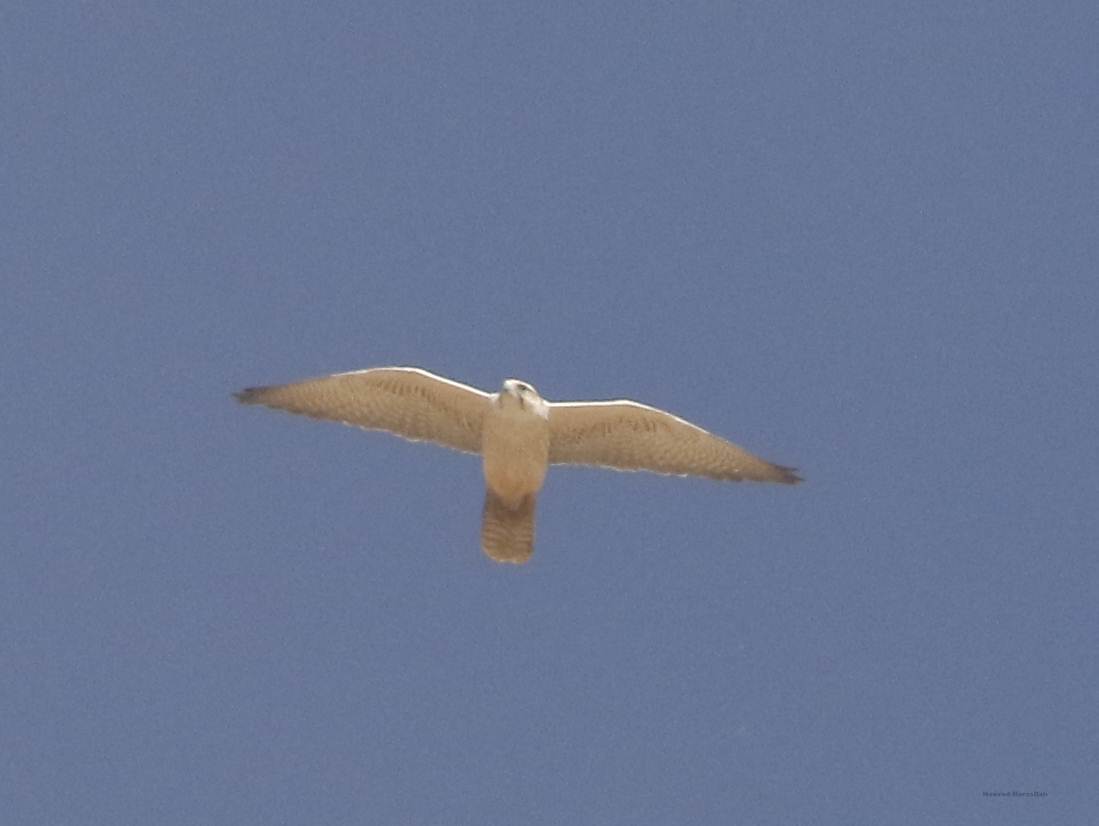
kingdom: Animalia
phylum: Chordata
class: Aves
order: Falconiformes
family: Falconidae
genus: Falco
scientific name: Falco biarmicus
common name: Lanner falcon
